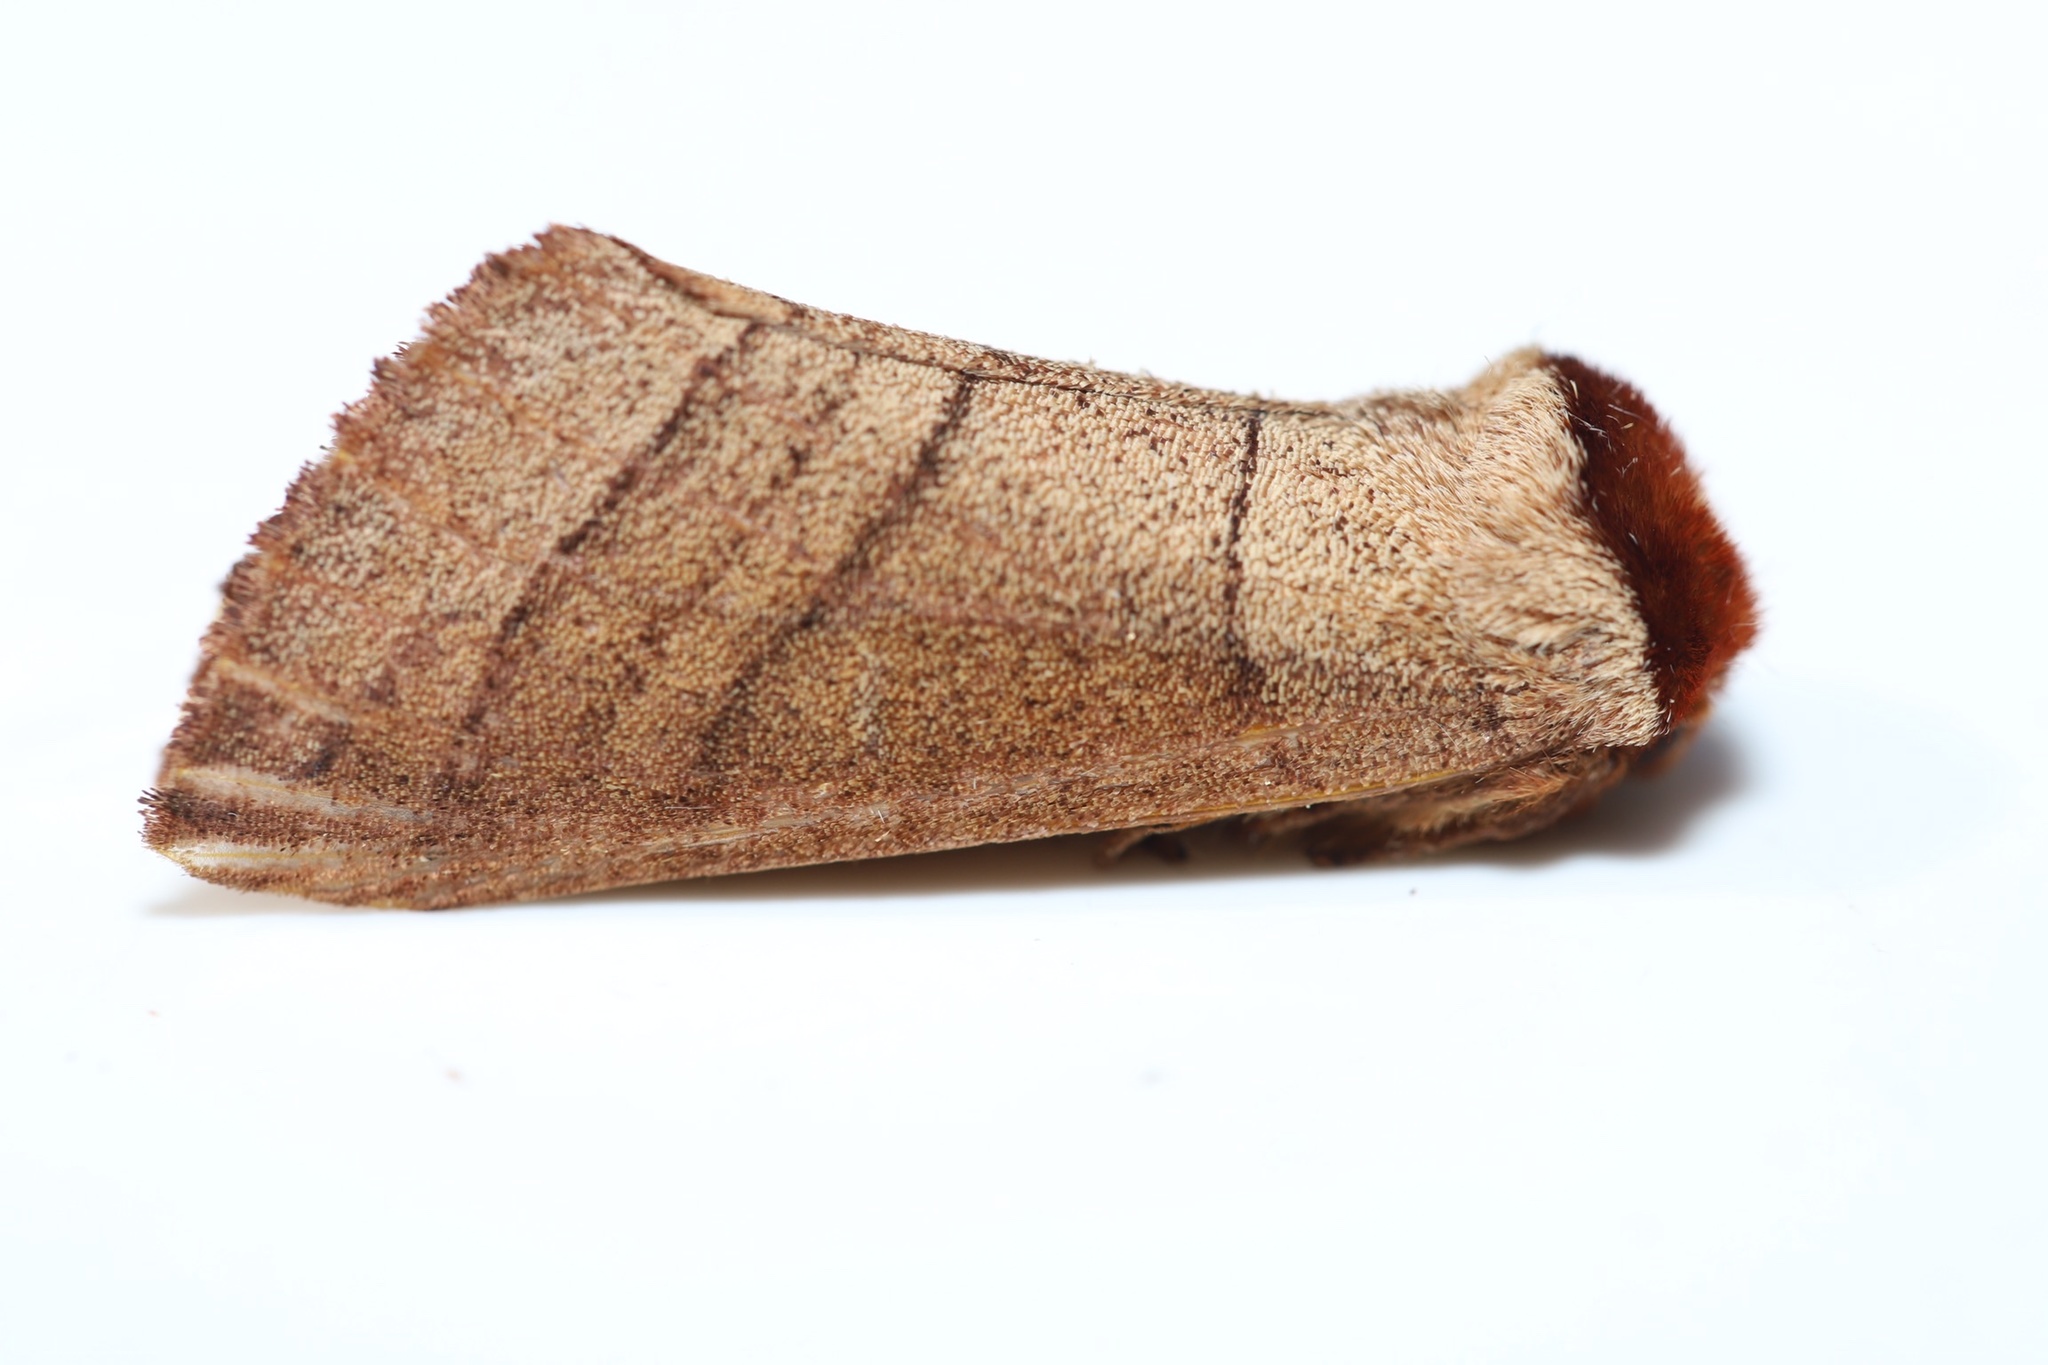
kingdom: Animalia
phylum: Arthropoda
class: Insecta
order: Lepidoptera
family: Notodontidae
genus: Datana
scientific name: Datana ministra
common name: Yellow-necked caterpillar moth
